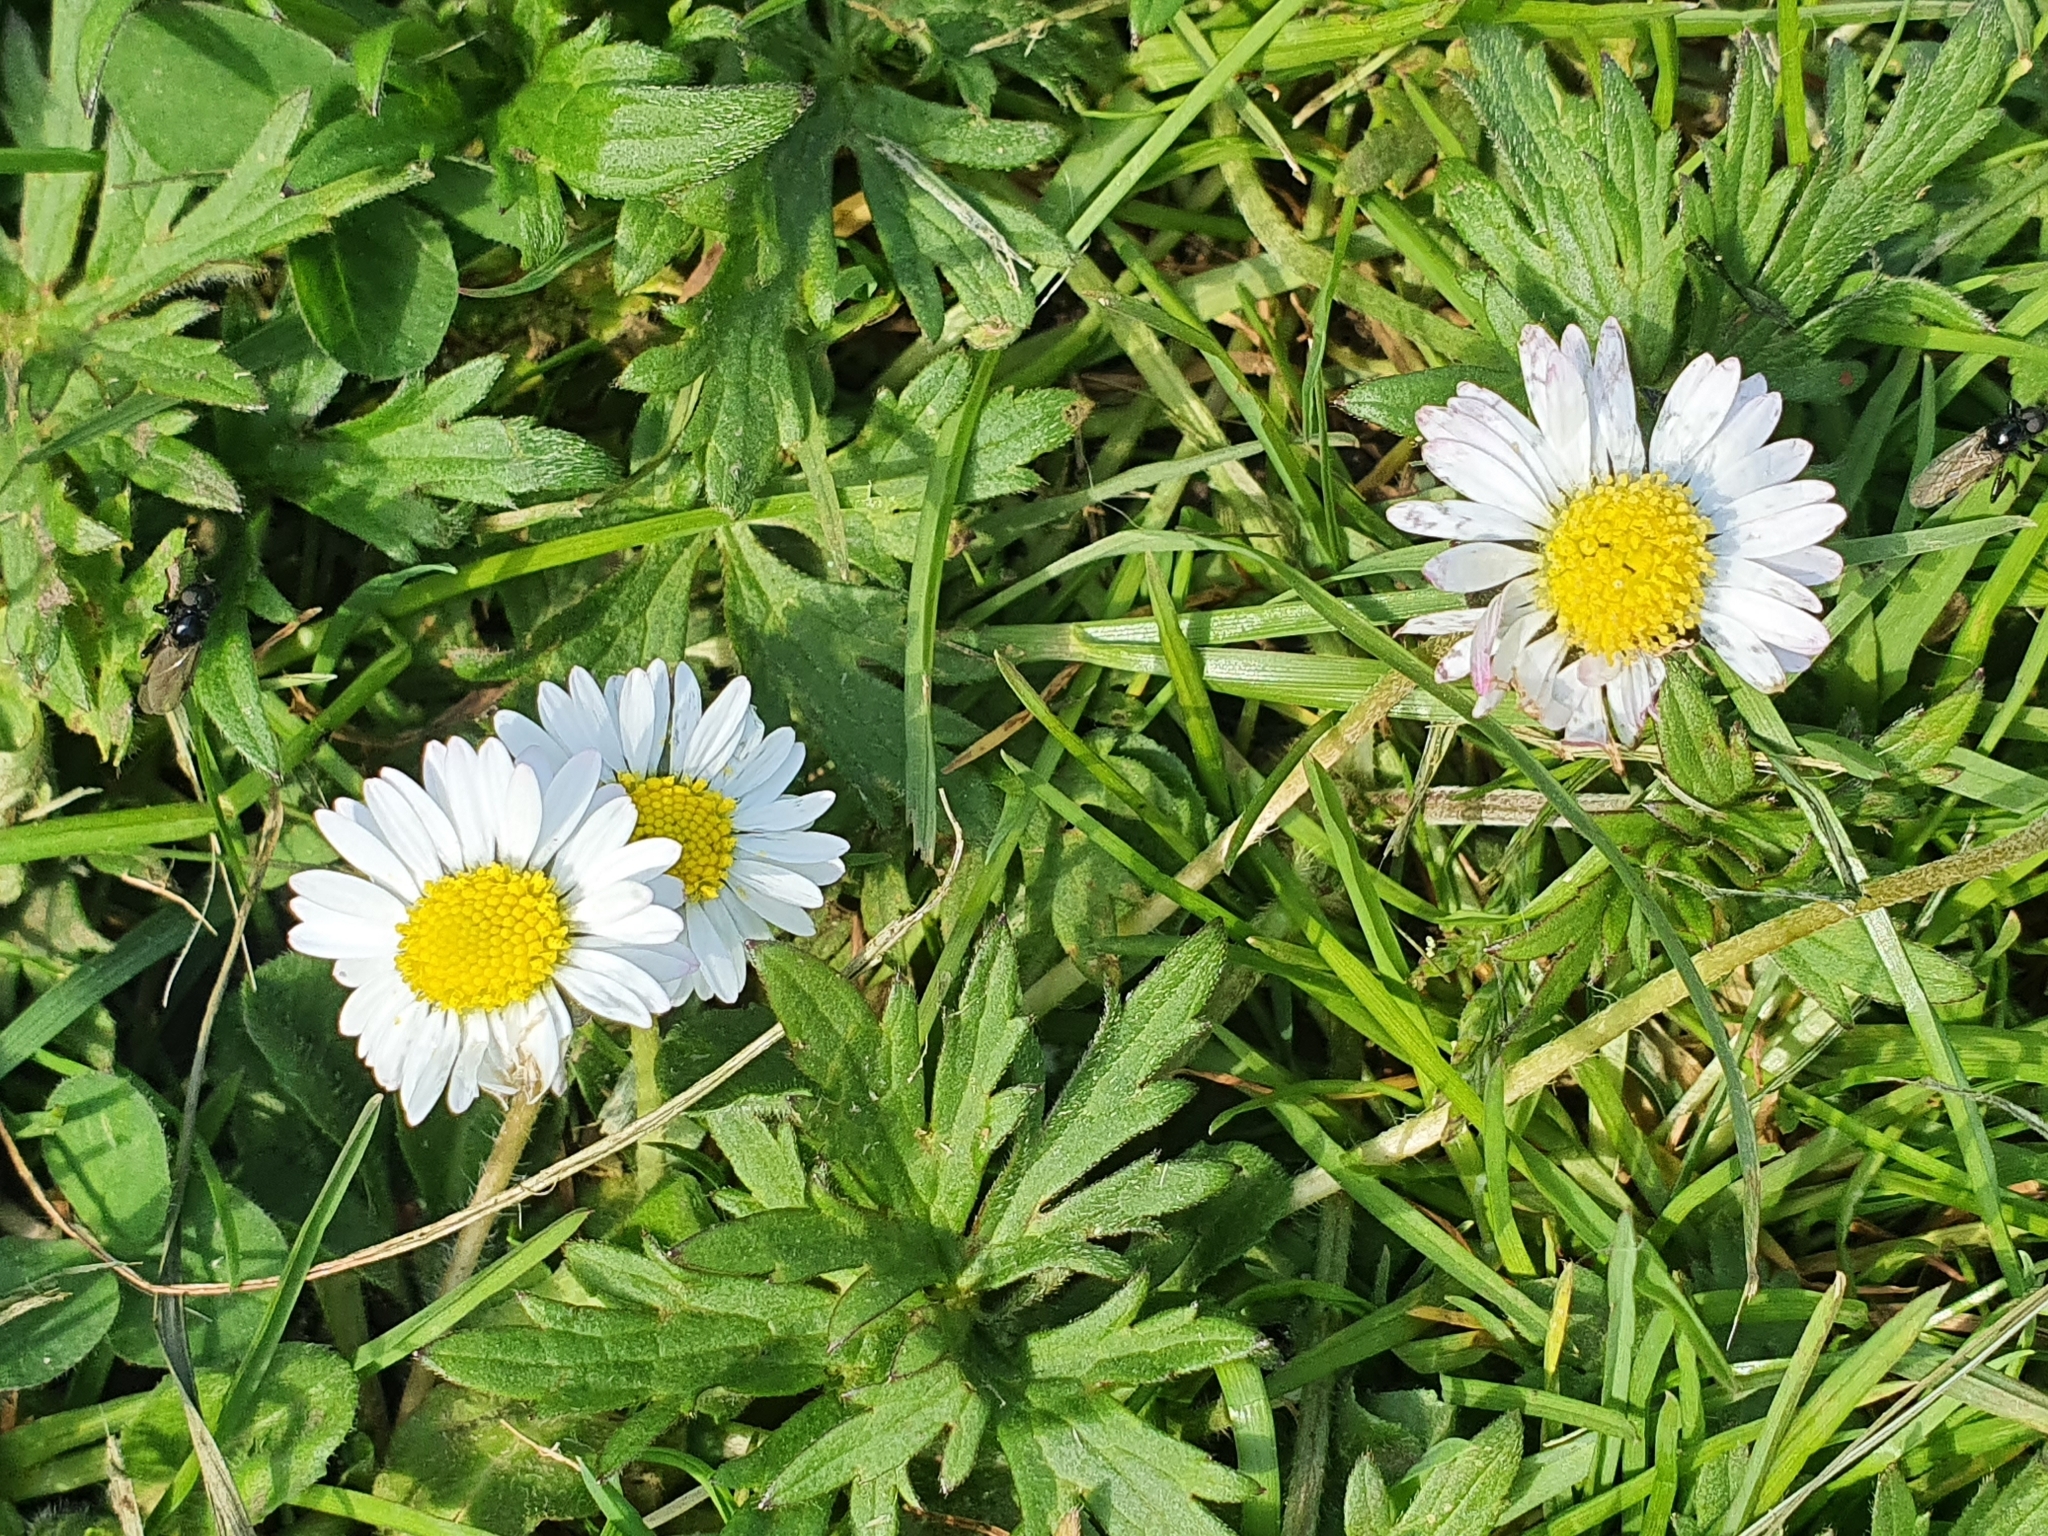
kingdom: Plantae
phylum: Tracheophyta
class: Magnoliopsida
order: Asterales
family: Asteraceae
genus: Bellis
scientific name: Bellis perennis
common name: Lawndaisy
